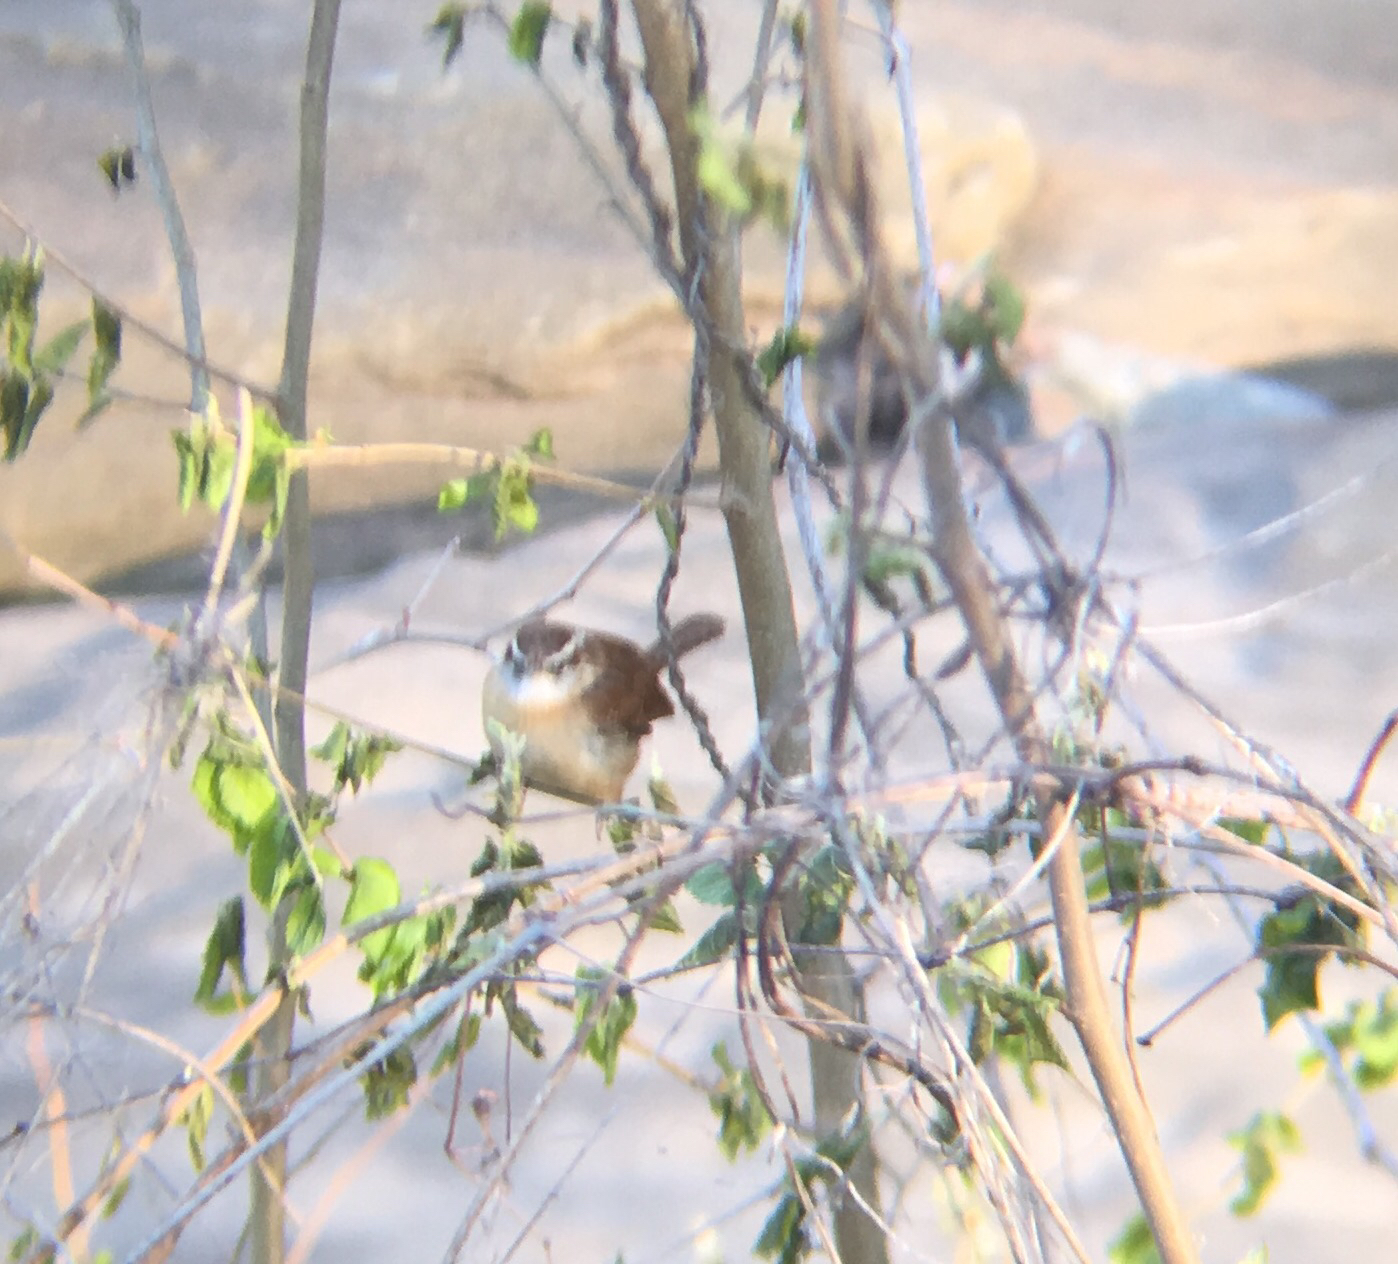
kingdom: Animalia
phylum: Chordata
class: Aves
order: Passeriformes
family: Troglodytidae
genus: Thryothorus
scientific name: Thryothorus ludovicianus
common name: Carolina wren
